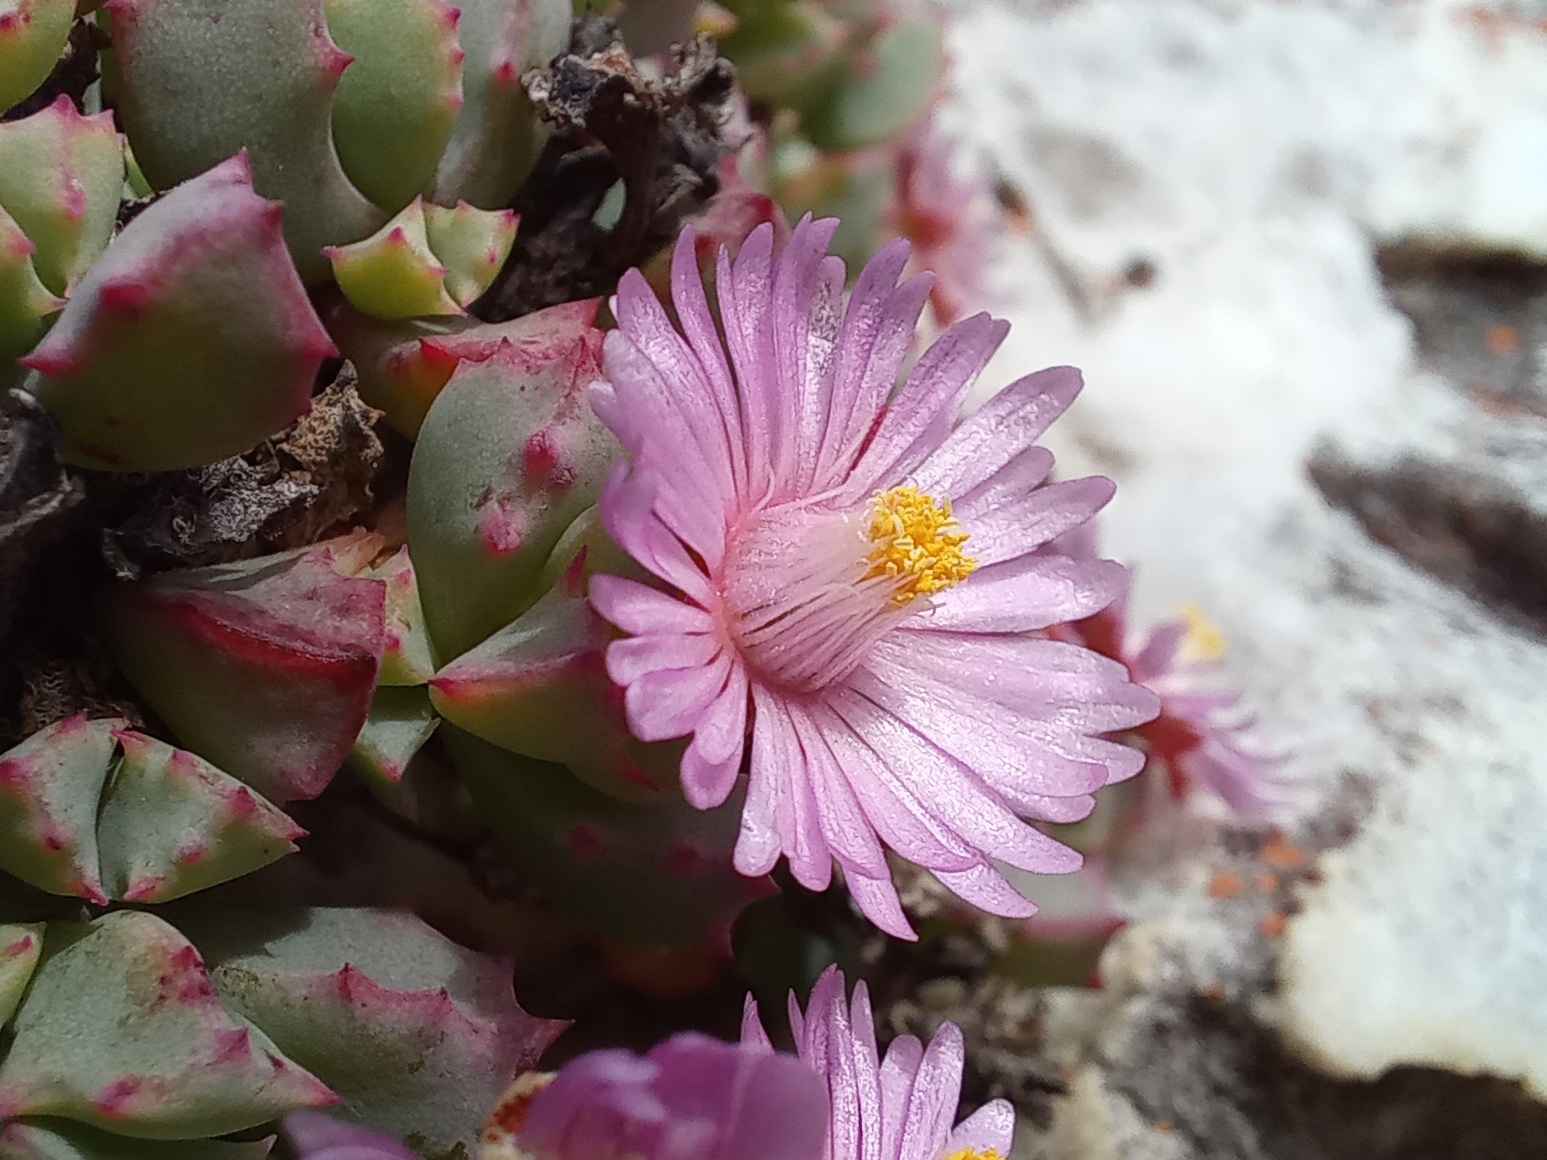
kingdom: Plantae
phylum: Tracheophyta
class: Magnoliopsida
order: Caryophyllales
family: Aizoaceae
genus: Oscularia
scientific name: Oscularia deltoides
